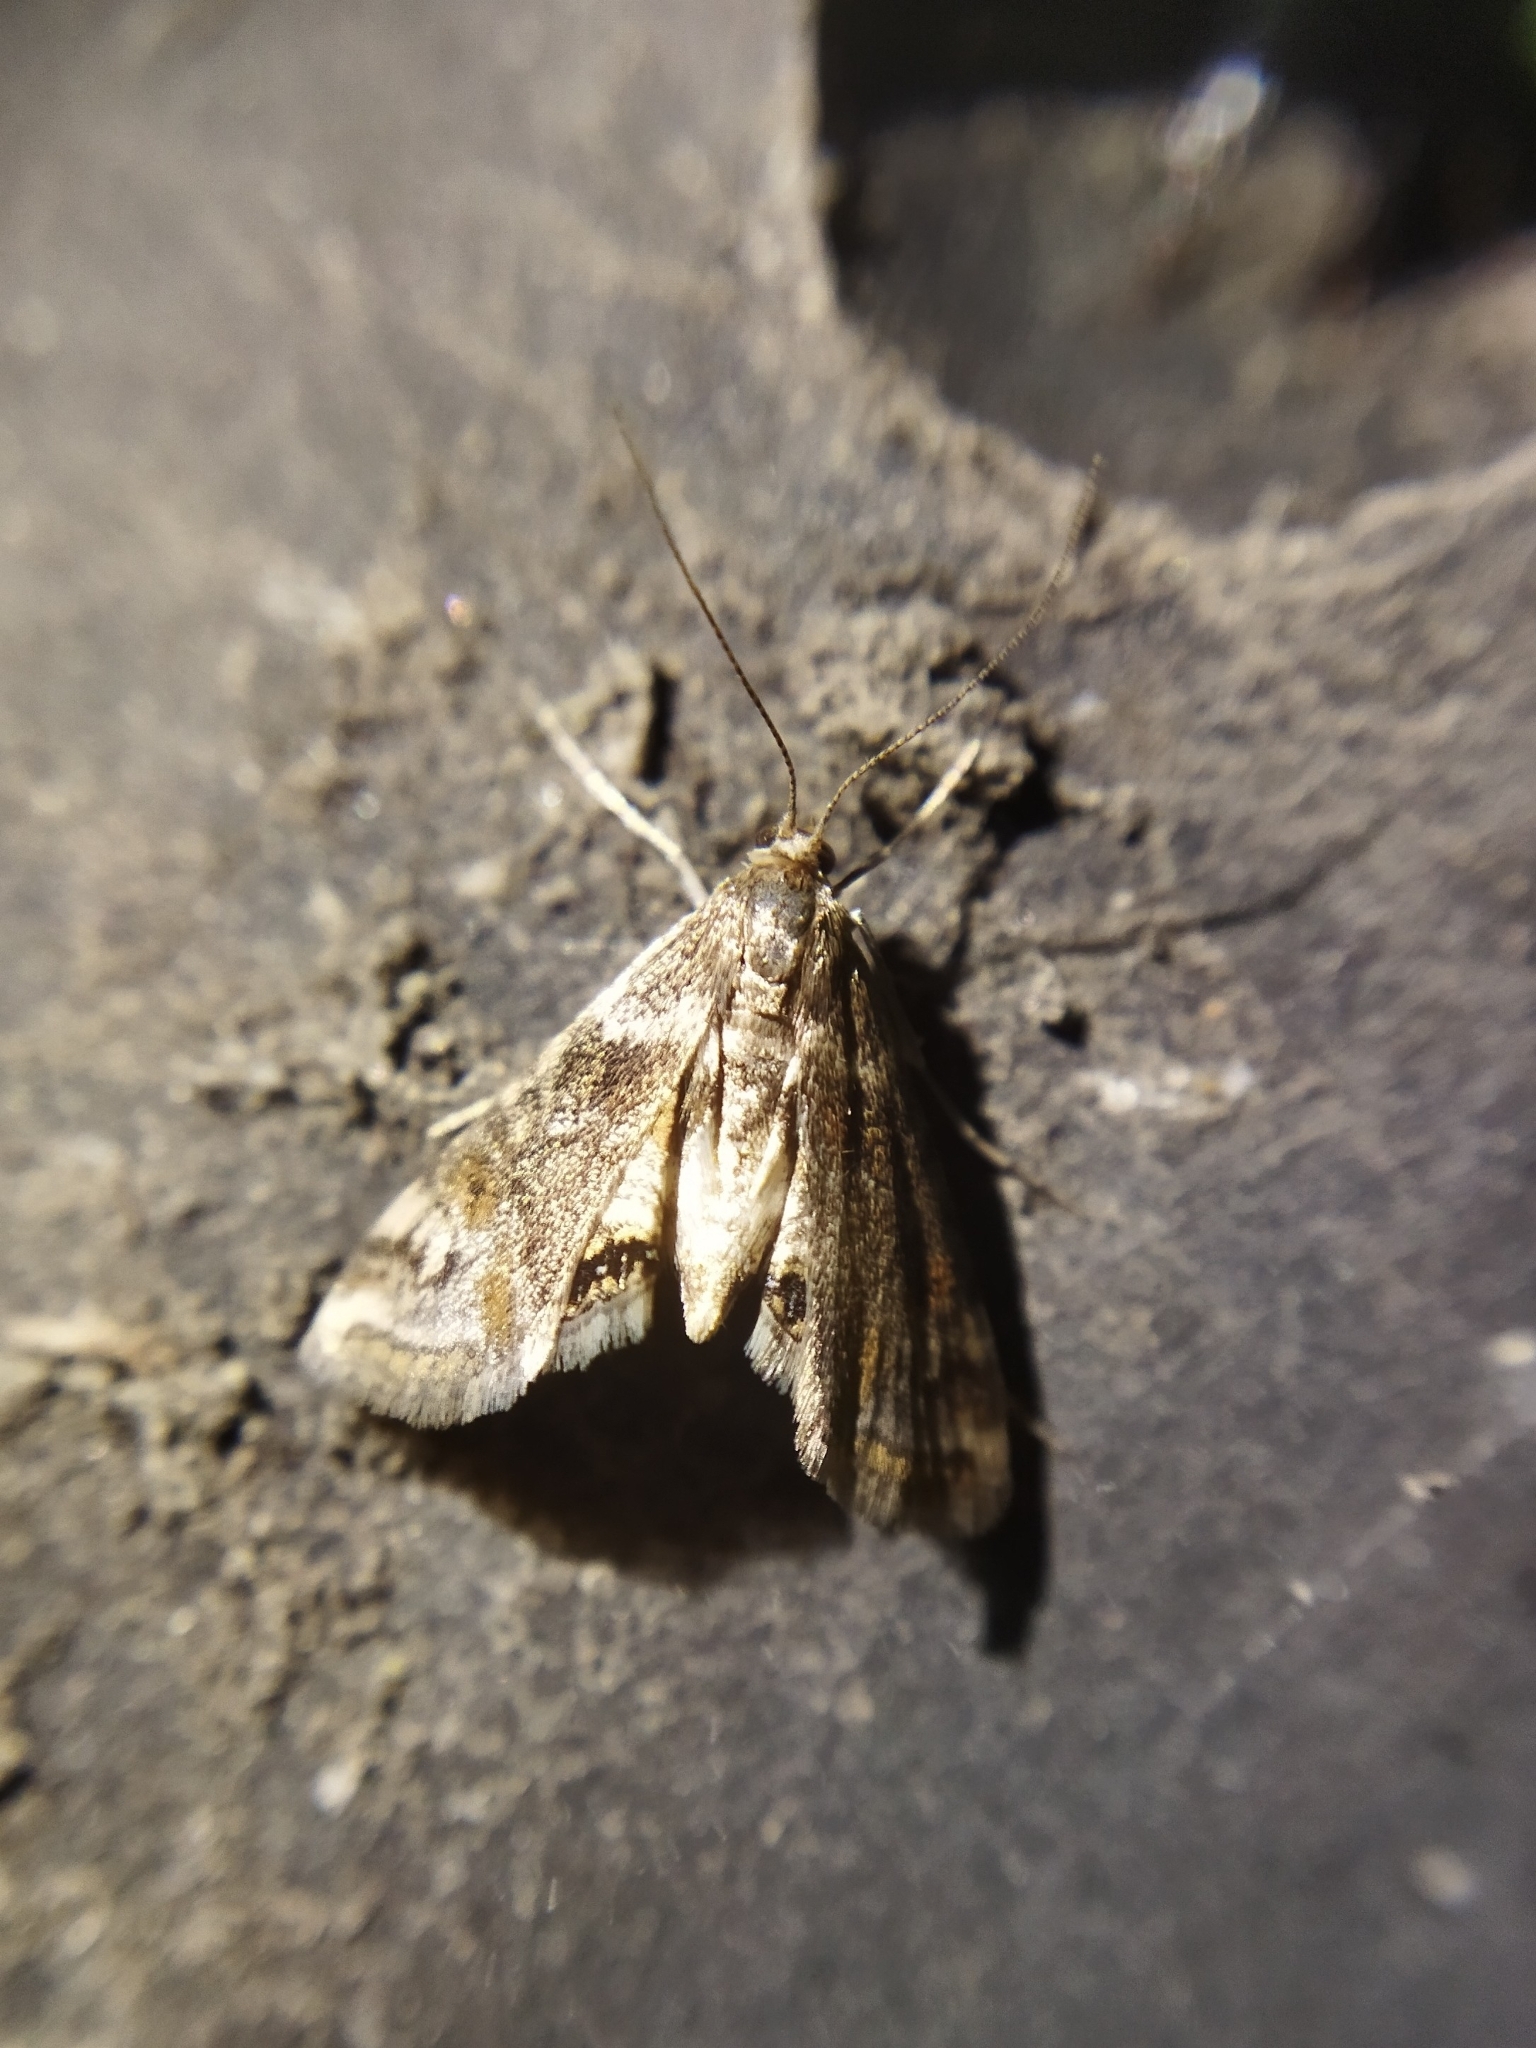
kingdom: Animalia
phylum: Arthropoda
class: Insecta
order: Lepidoptera
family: Crambidae
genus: Cataclysta
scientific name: Cataclysta lemnata
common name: Small china-mark
